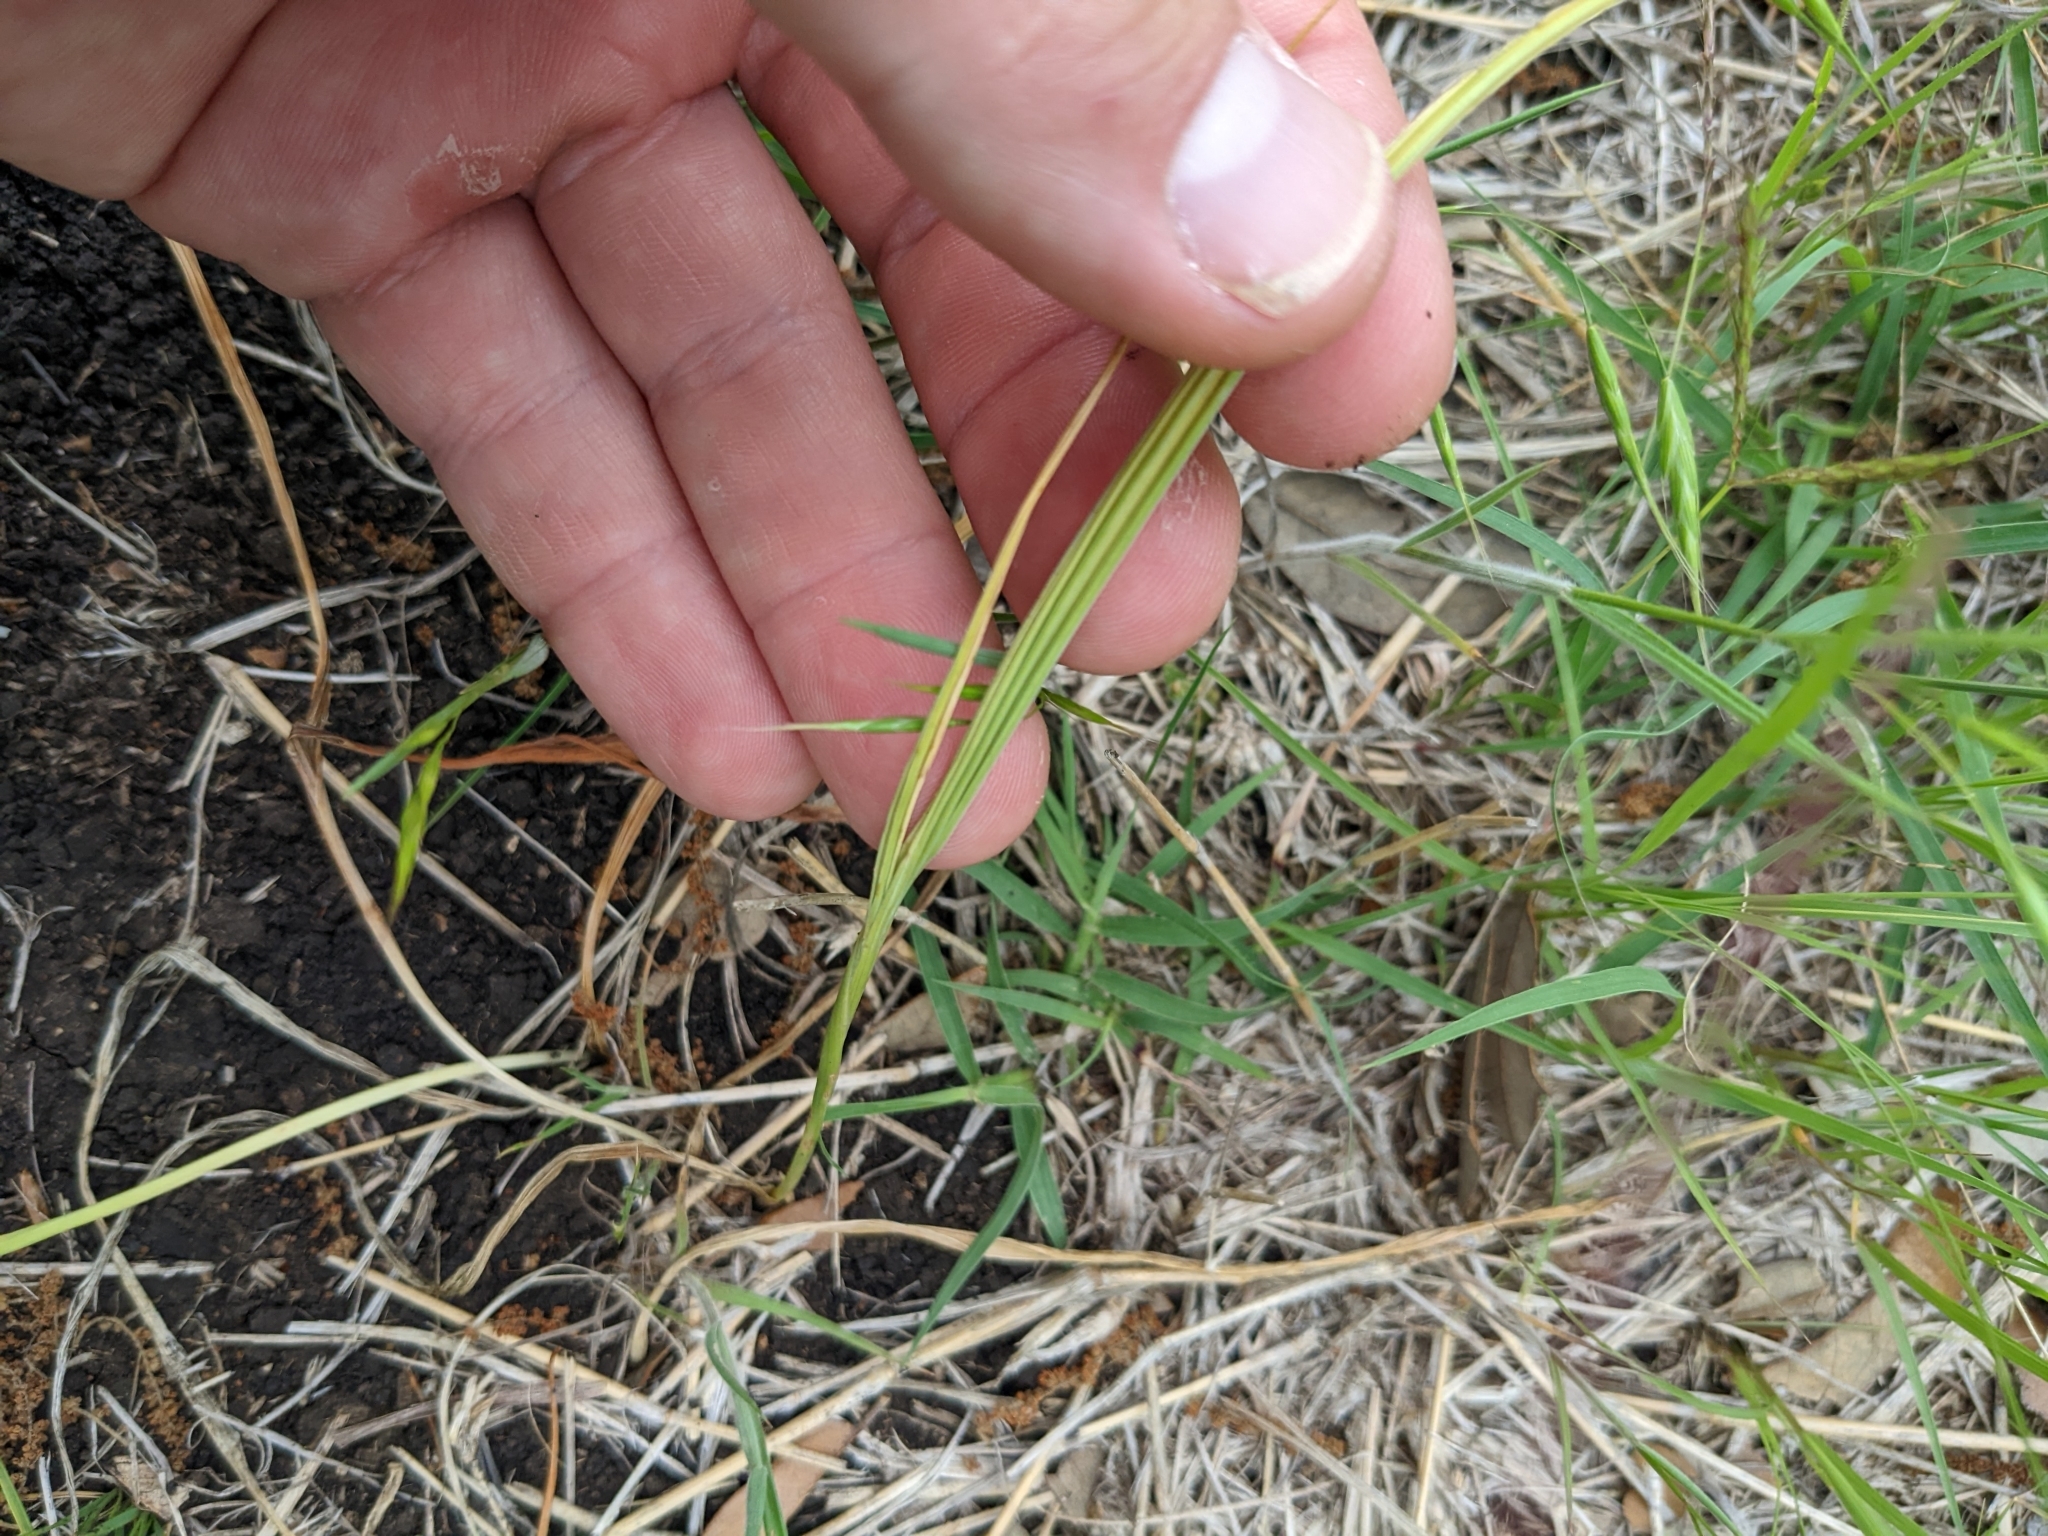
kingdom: Plantae
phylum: Tracheophyta
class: Liliopsida
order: Asparagales
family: Iridaceae
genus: Nemastylis
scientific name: Nemastylis geminiflora
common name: Prairie celestial
